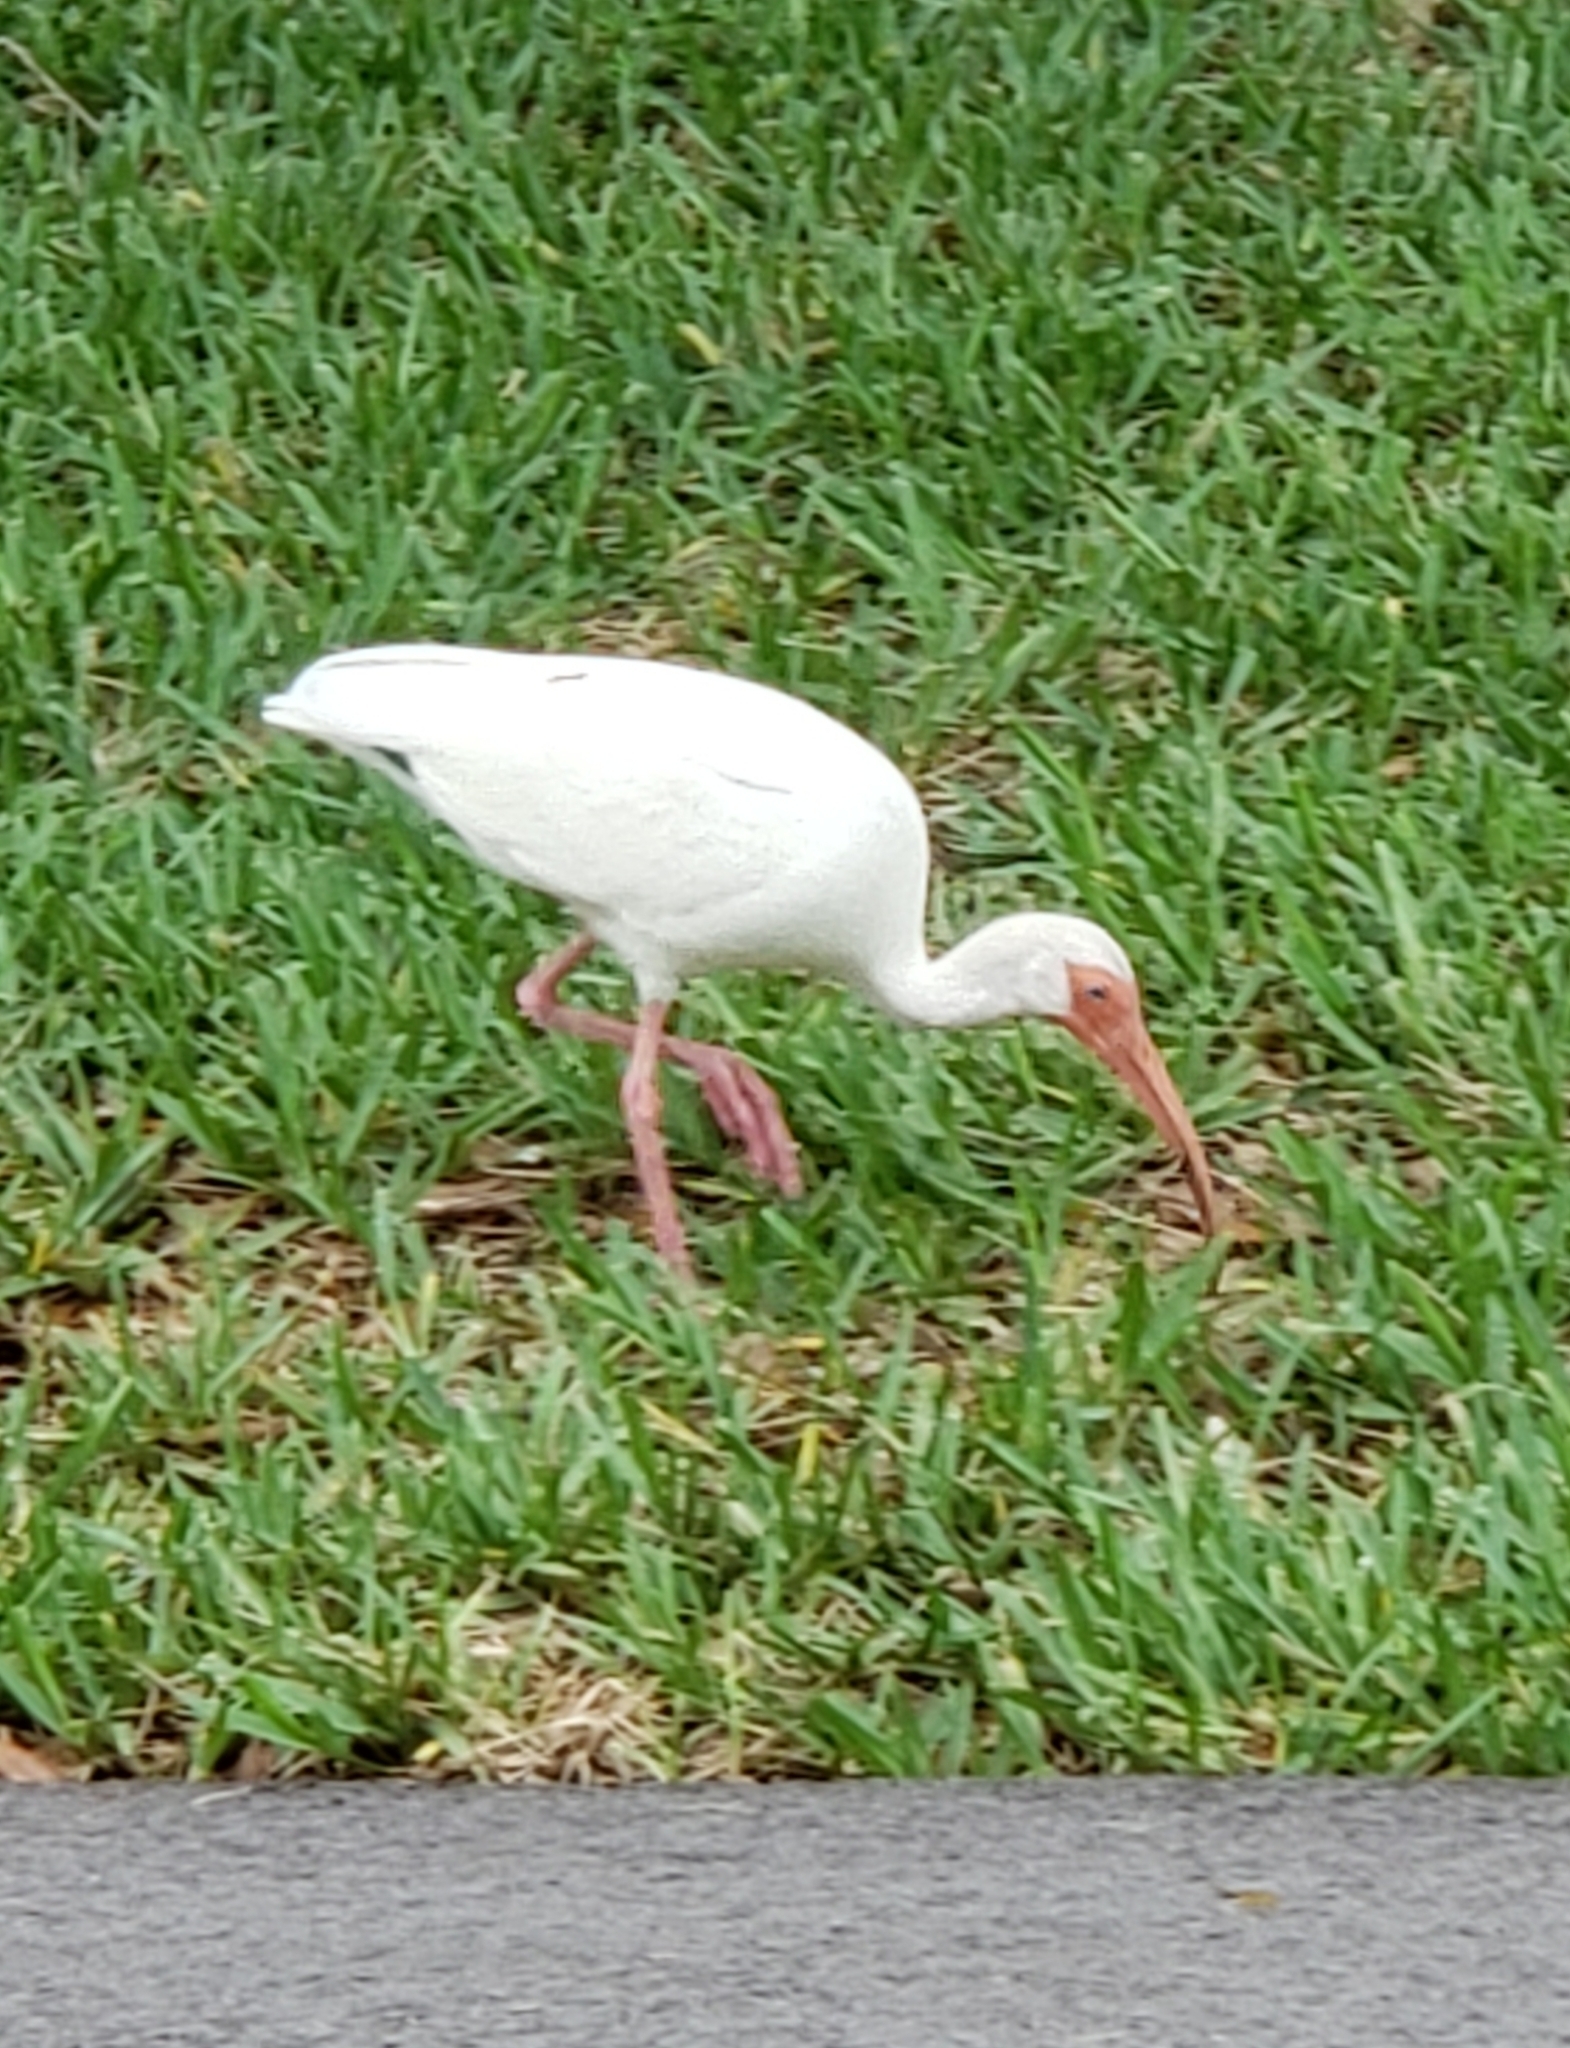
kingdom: Animalia
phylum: Chordata
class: Aves
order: Pelecaniformes
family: Threskiornithidae
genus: Eudocimus
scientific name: Eudocimus albus
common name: White ibis
